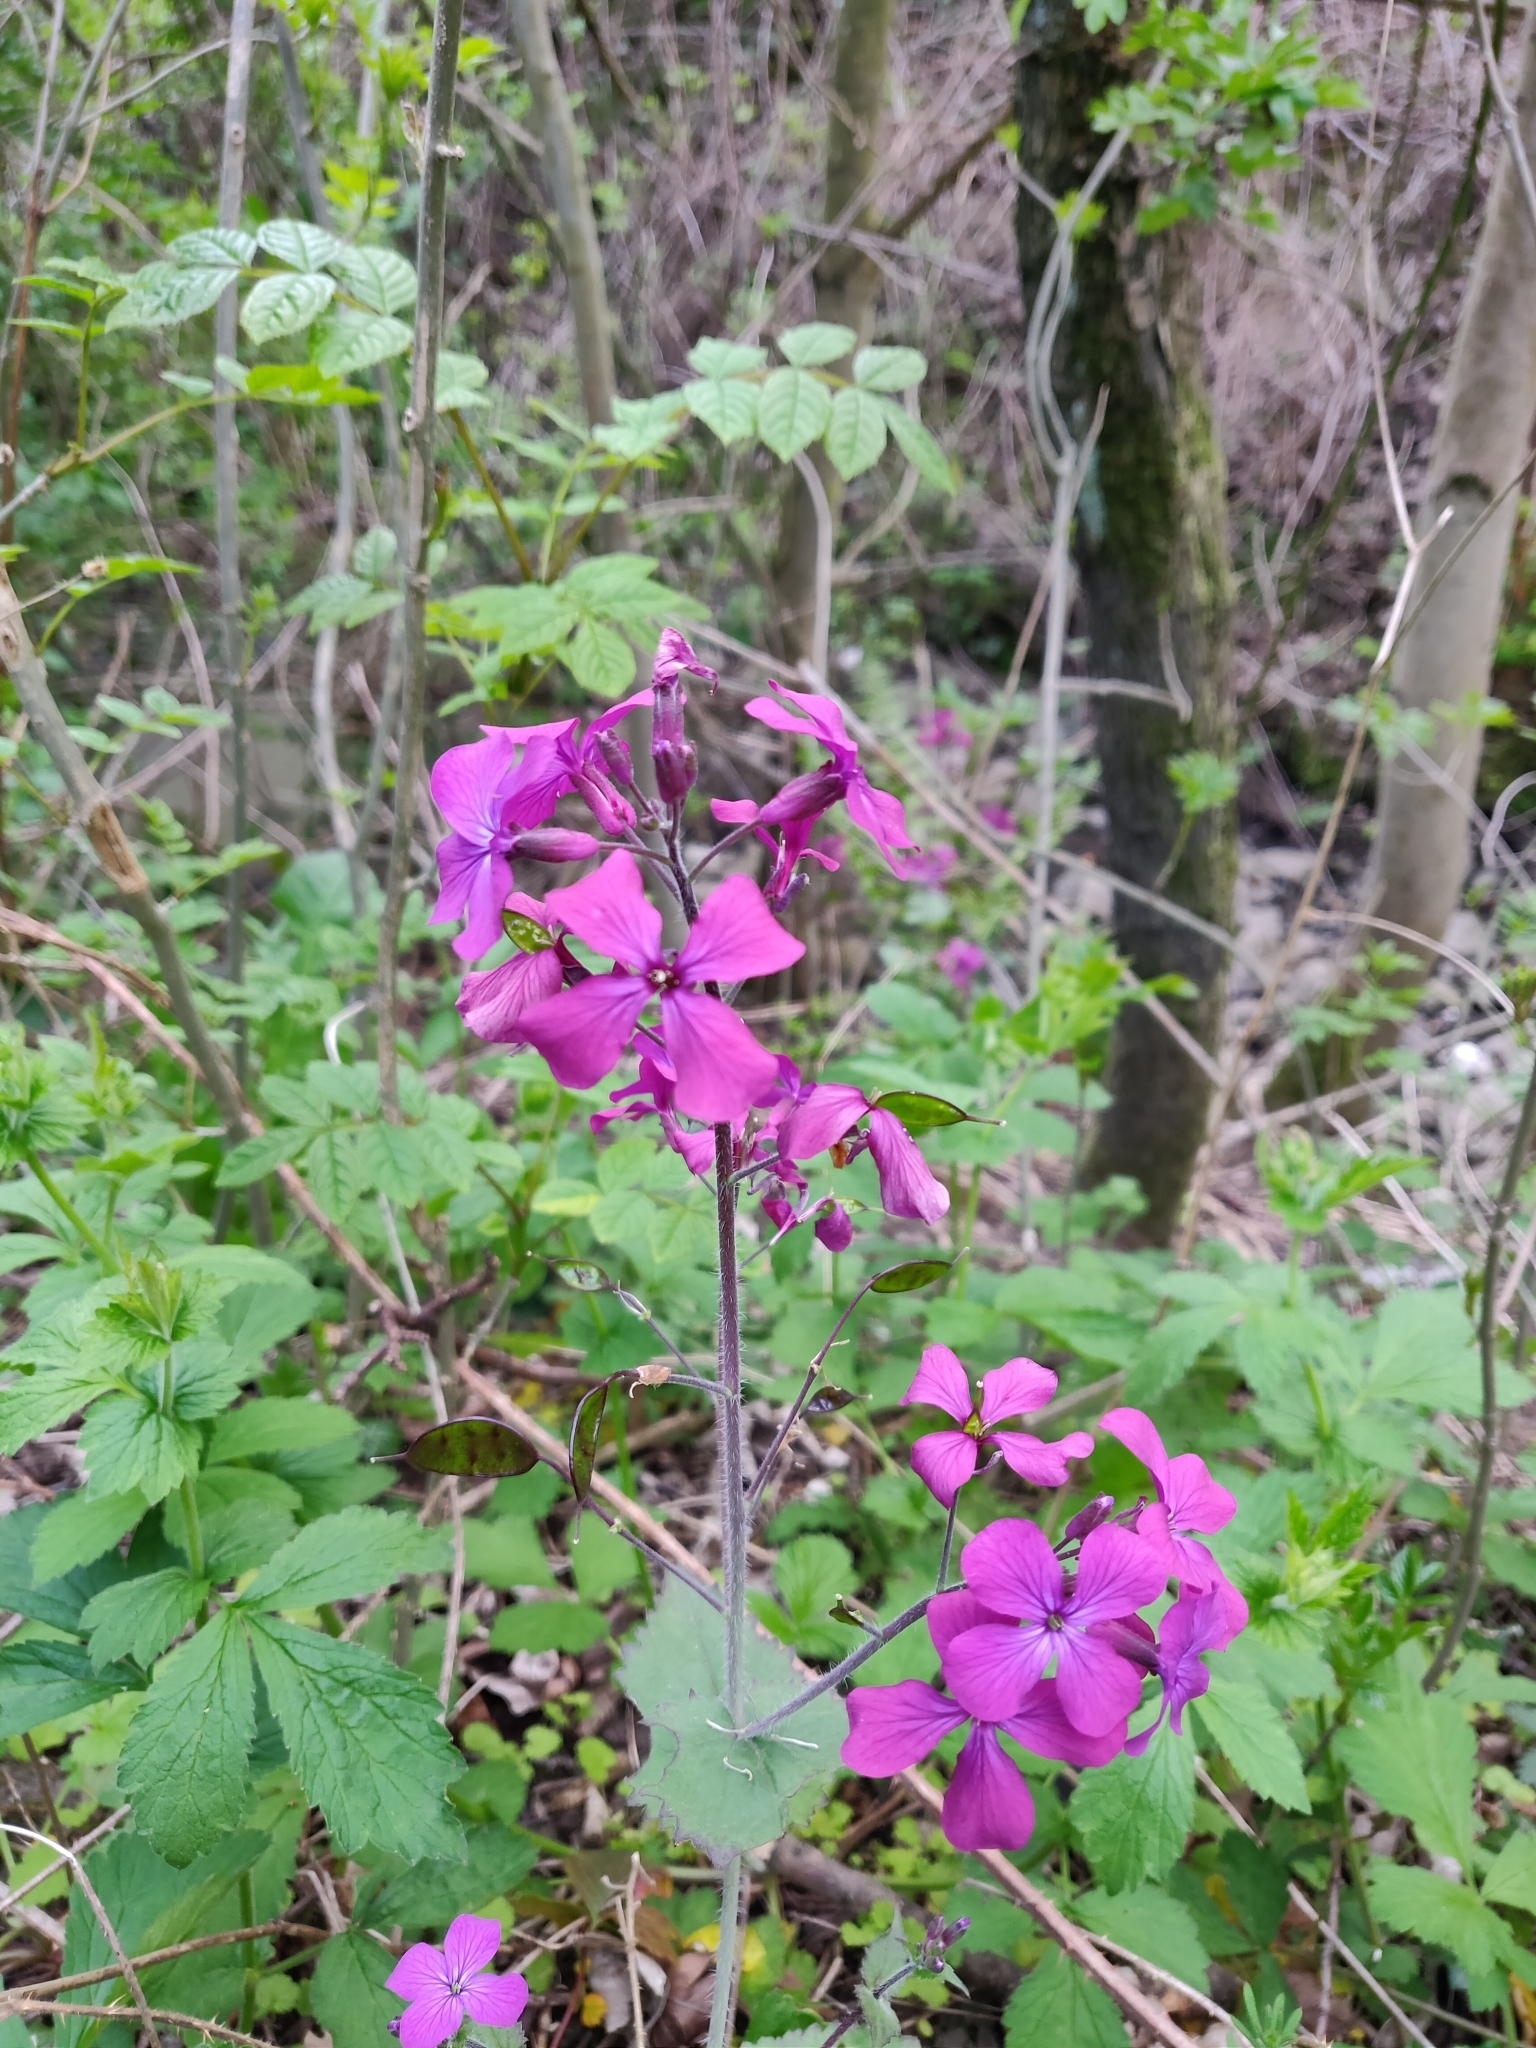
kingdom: Plantae
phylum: Tracheophyta
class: Magnoliopsida
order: Brassicales
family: Brassicaceae
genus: Lunaria
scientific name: Lunaria annua
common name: Honesty
